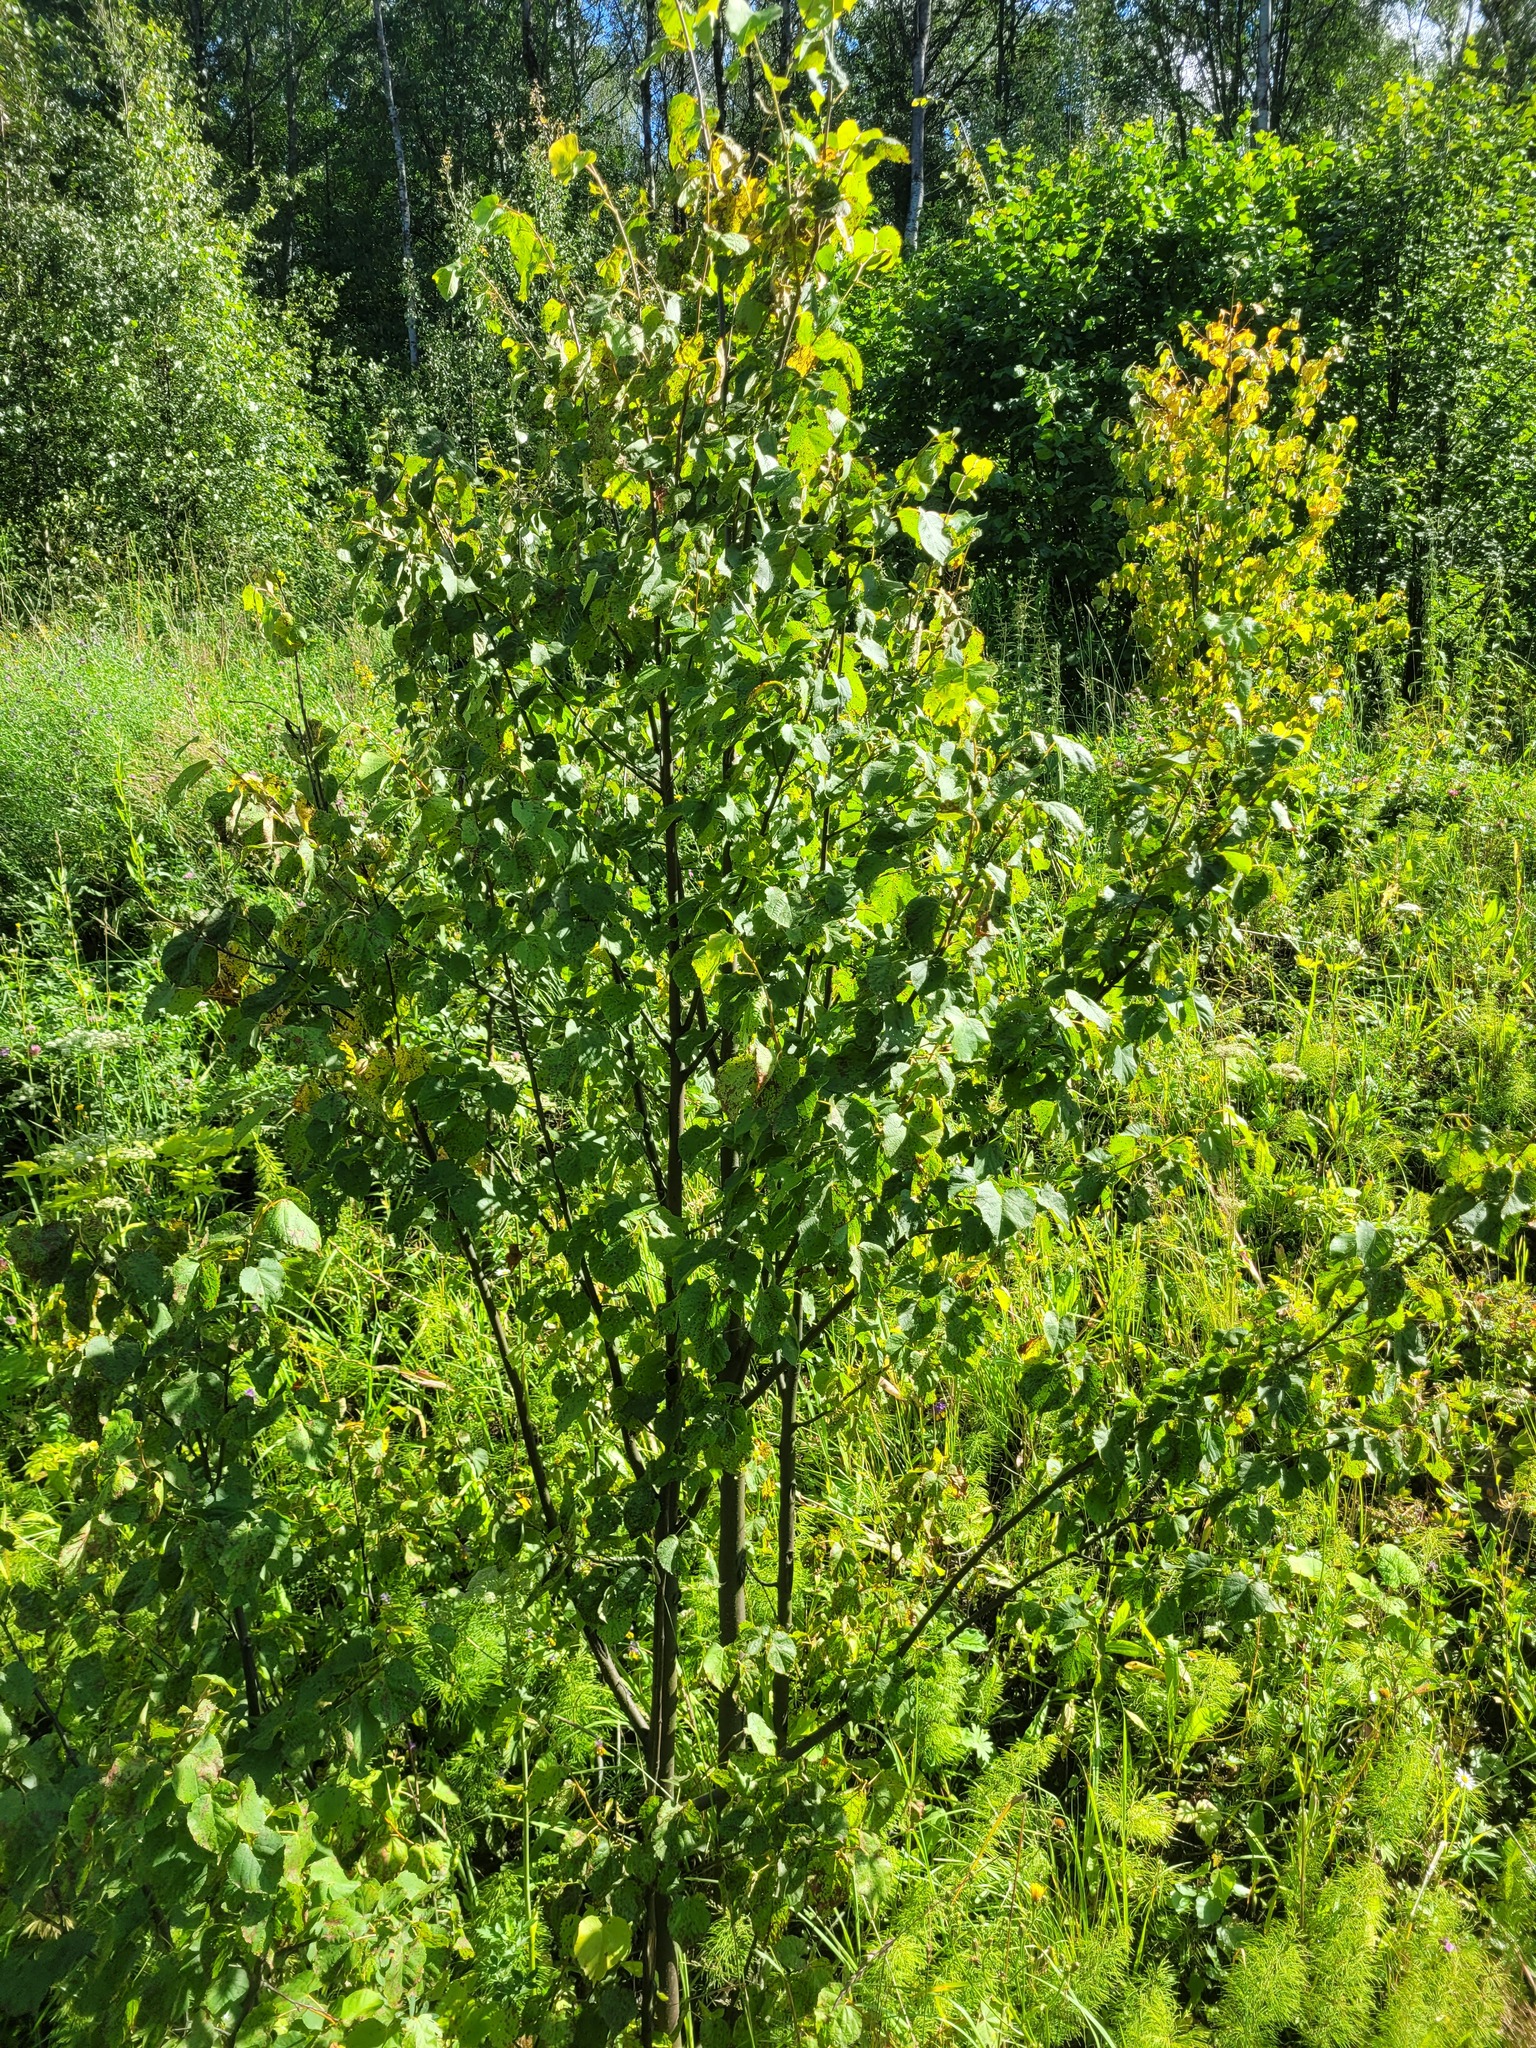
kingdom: Plantae
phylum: Tracheophyta
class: Magnoliopsida
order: Malvales
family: Malvaceae
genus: Tilia
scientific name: Tilia cordata
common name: Small-leaved lime
